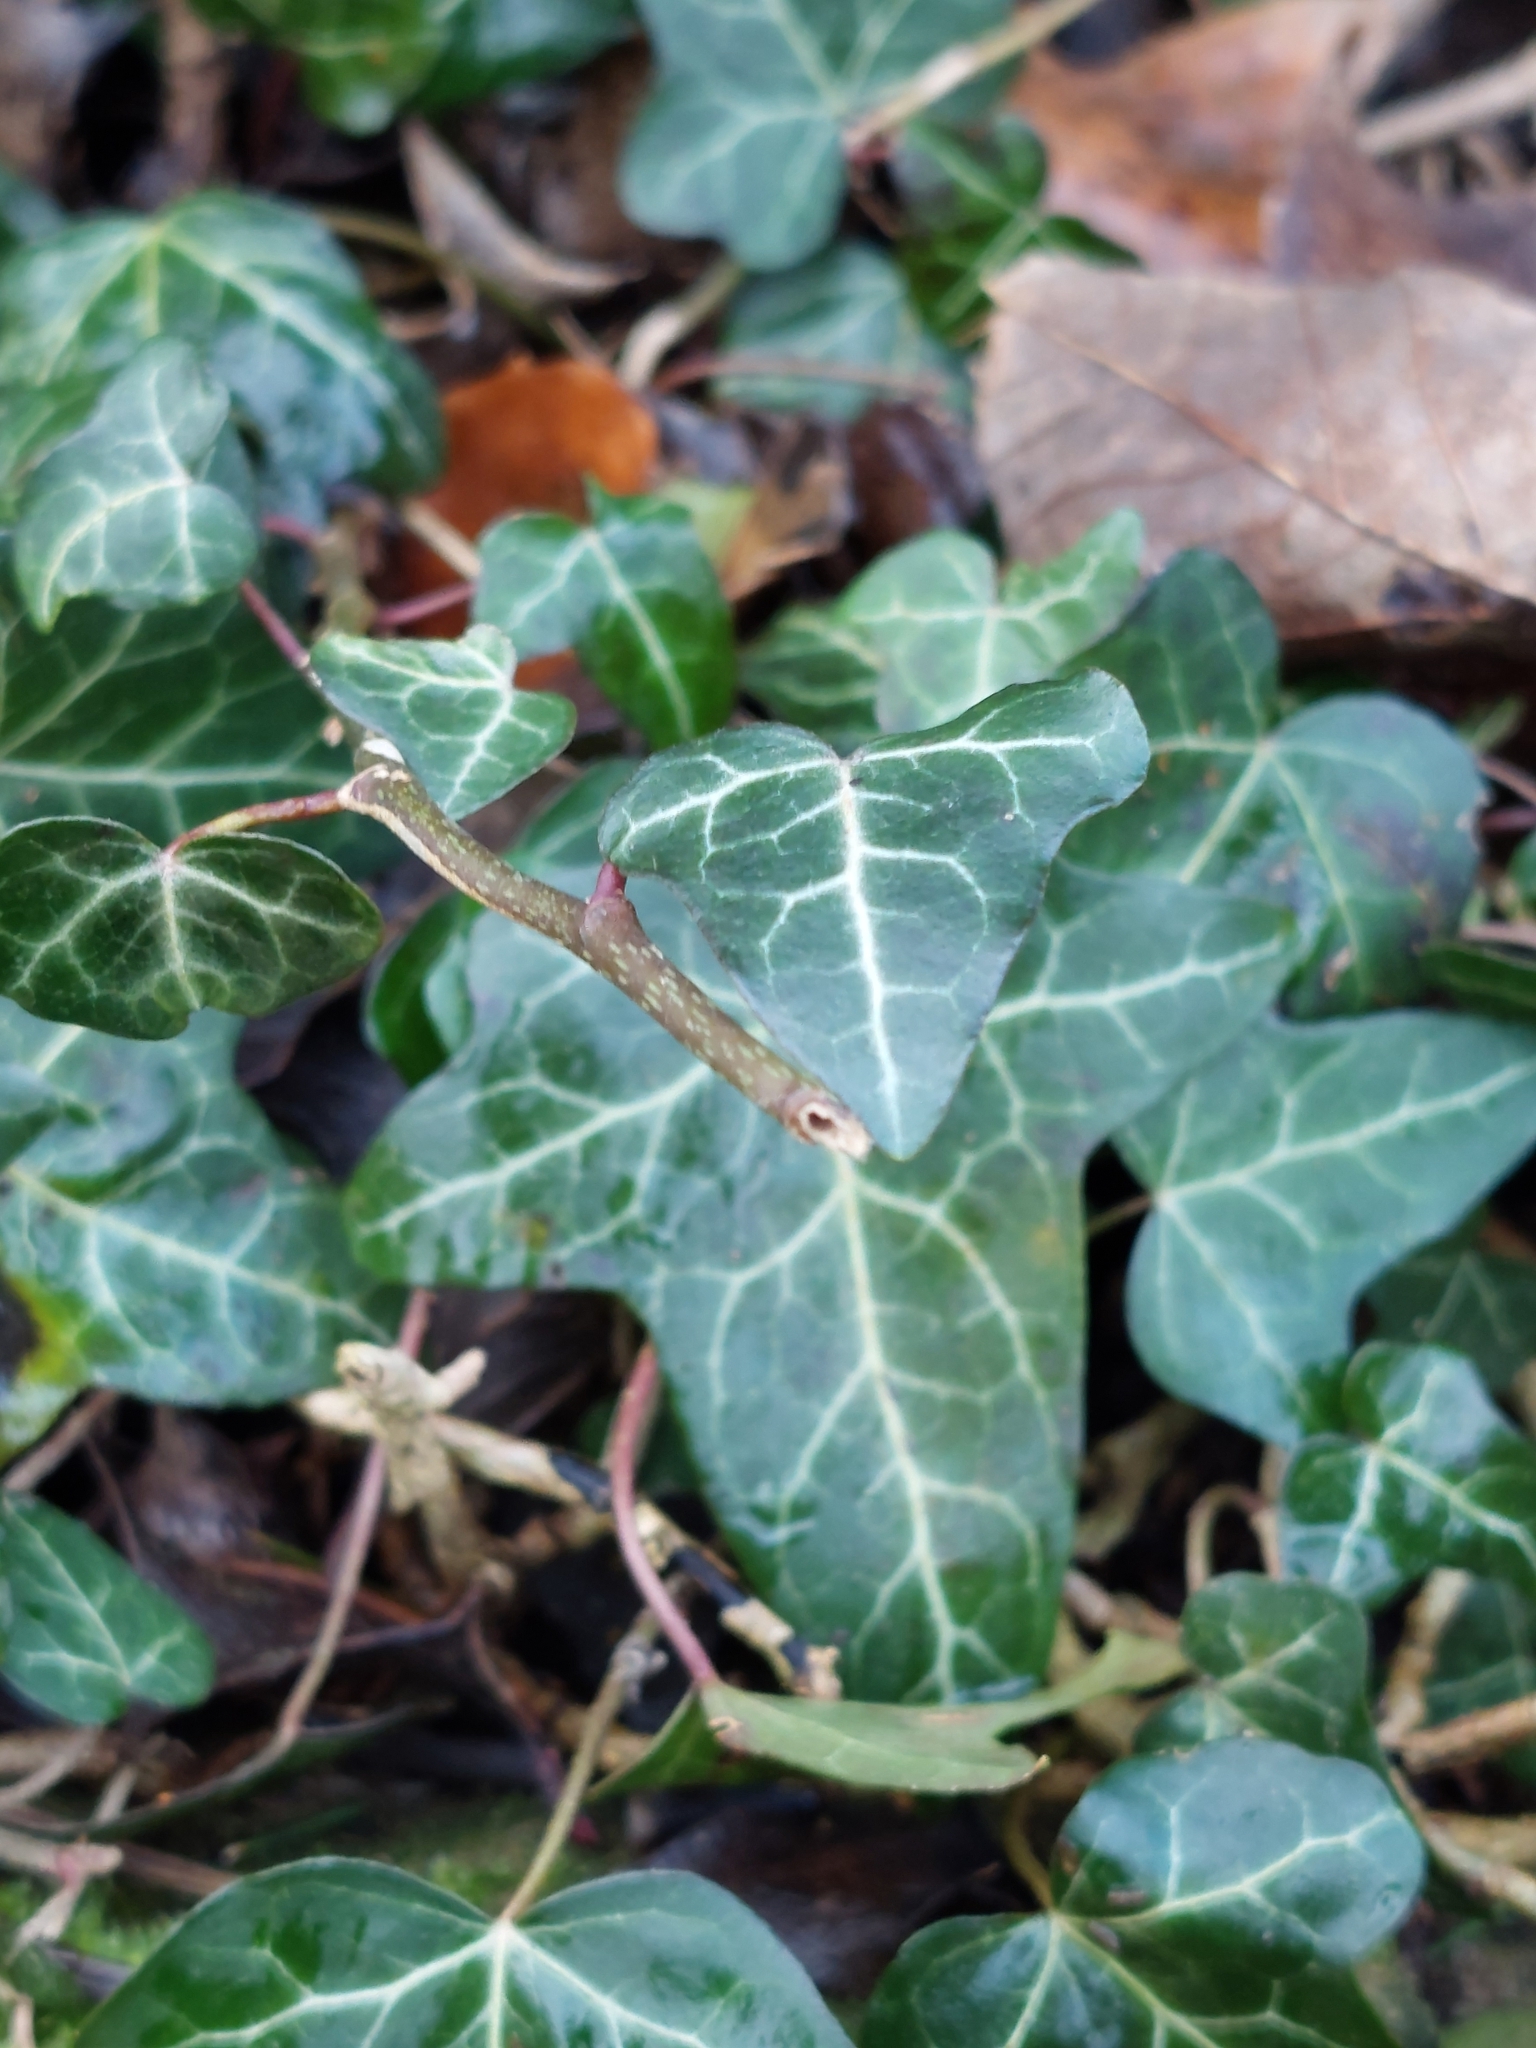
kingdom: Plantae
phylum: Tracheophyta
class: Magnoliopsida
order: Apiales
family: Araliaceae
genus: Hedera
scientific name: Hedera helix
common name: Ivy
